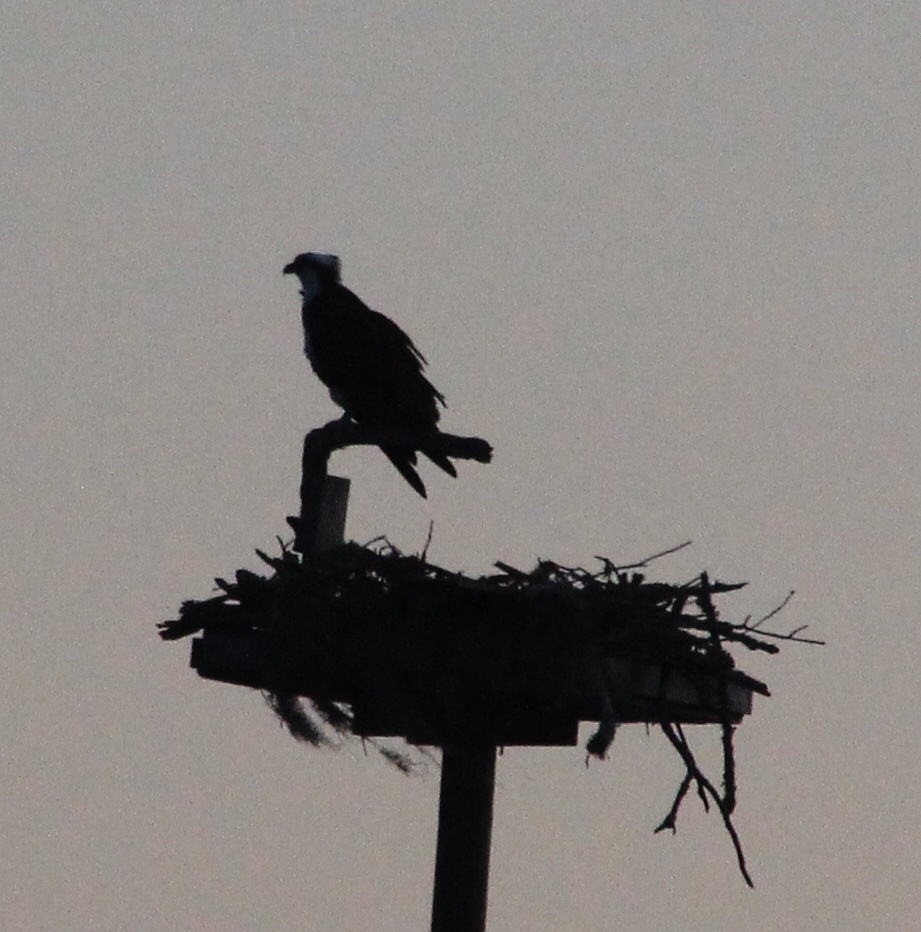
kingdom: Animalia
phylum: Chordata
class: Aves
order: Accipitriformes
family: Pandionidae
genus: Pandion
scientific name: Pandion haliaetus
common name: Osprey
